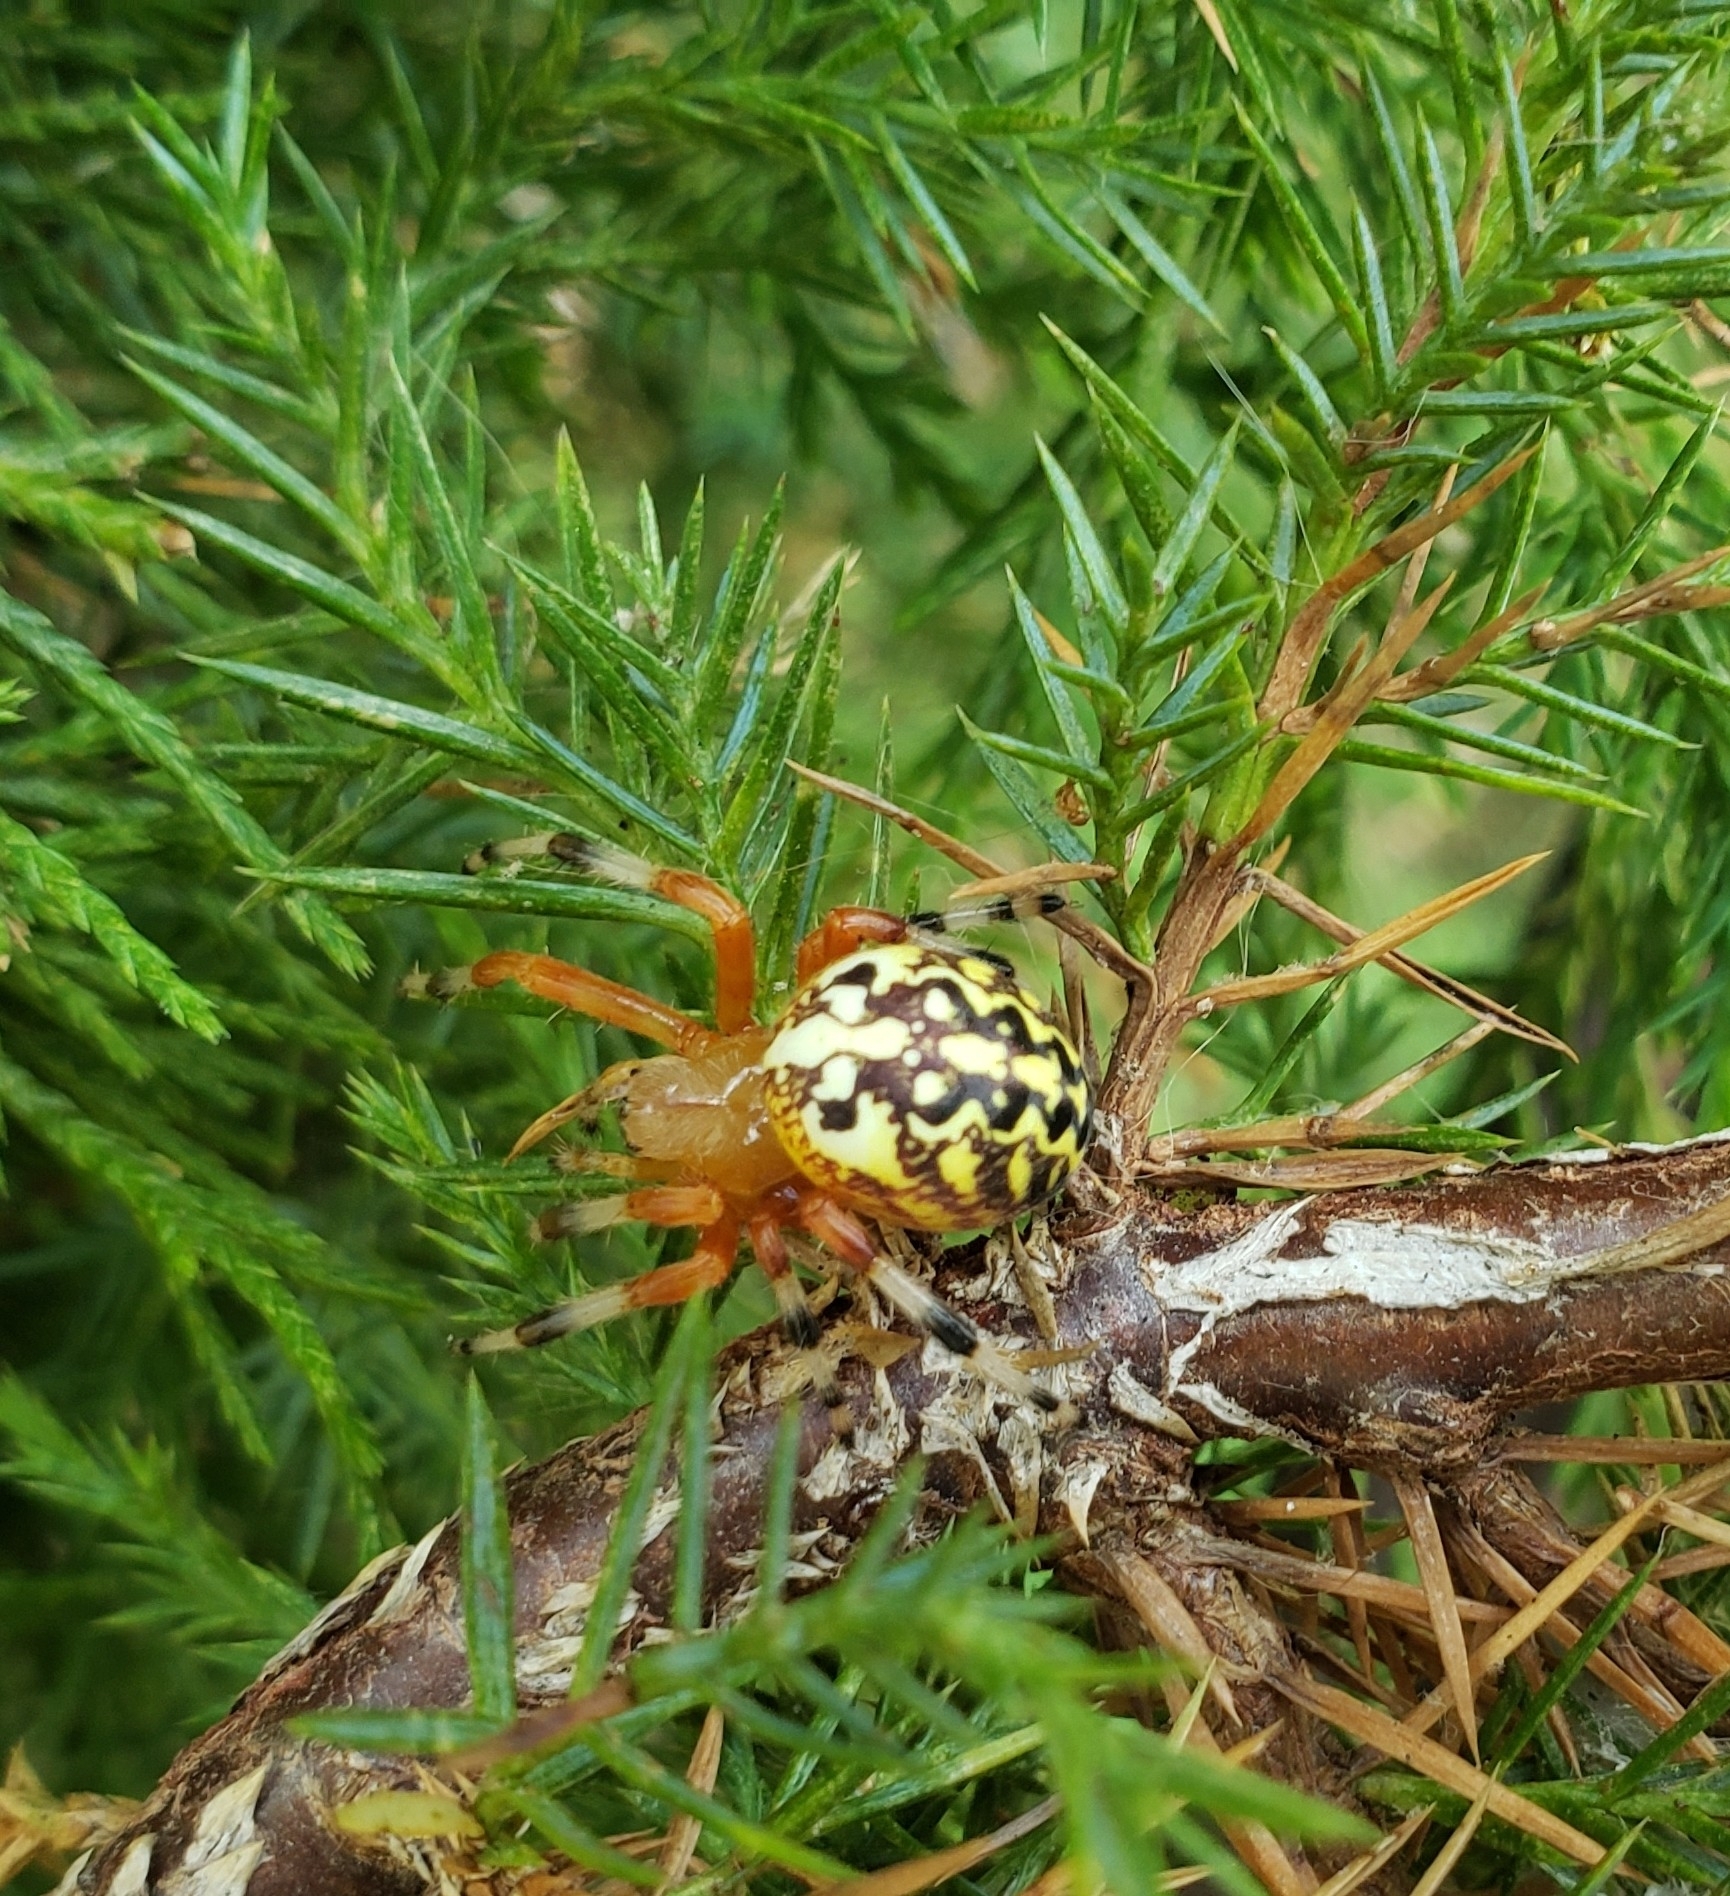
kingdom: Animalia
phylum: Arthropoda
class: Arachnida
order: Araneae
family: Araneidae
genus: Araneus
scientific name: Araneus marmoreus
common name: Marbled orbweaver
